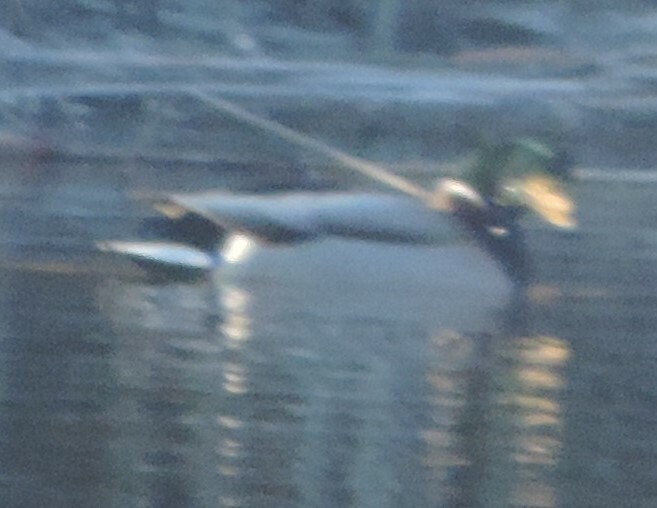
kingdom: Animalia
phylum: Chordata
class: Aves
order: Anseriformes
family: Anatidae
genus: Anas
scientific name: Anas platyrhynchos
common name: Mallard
